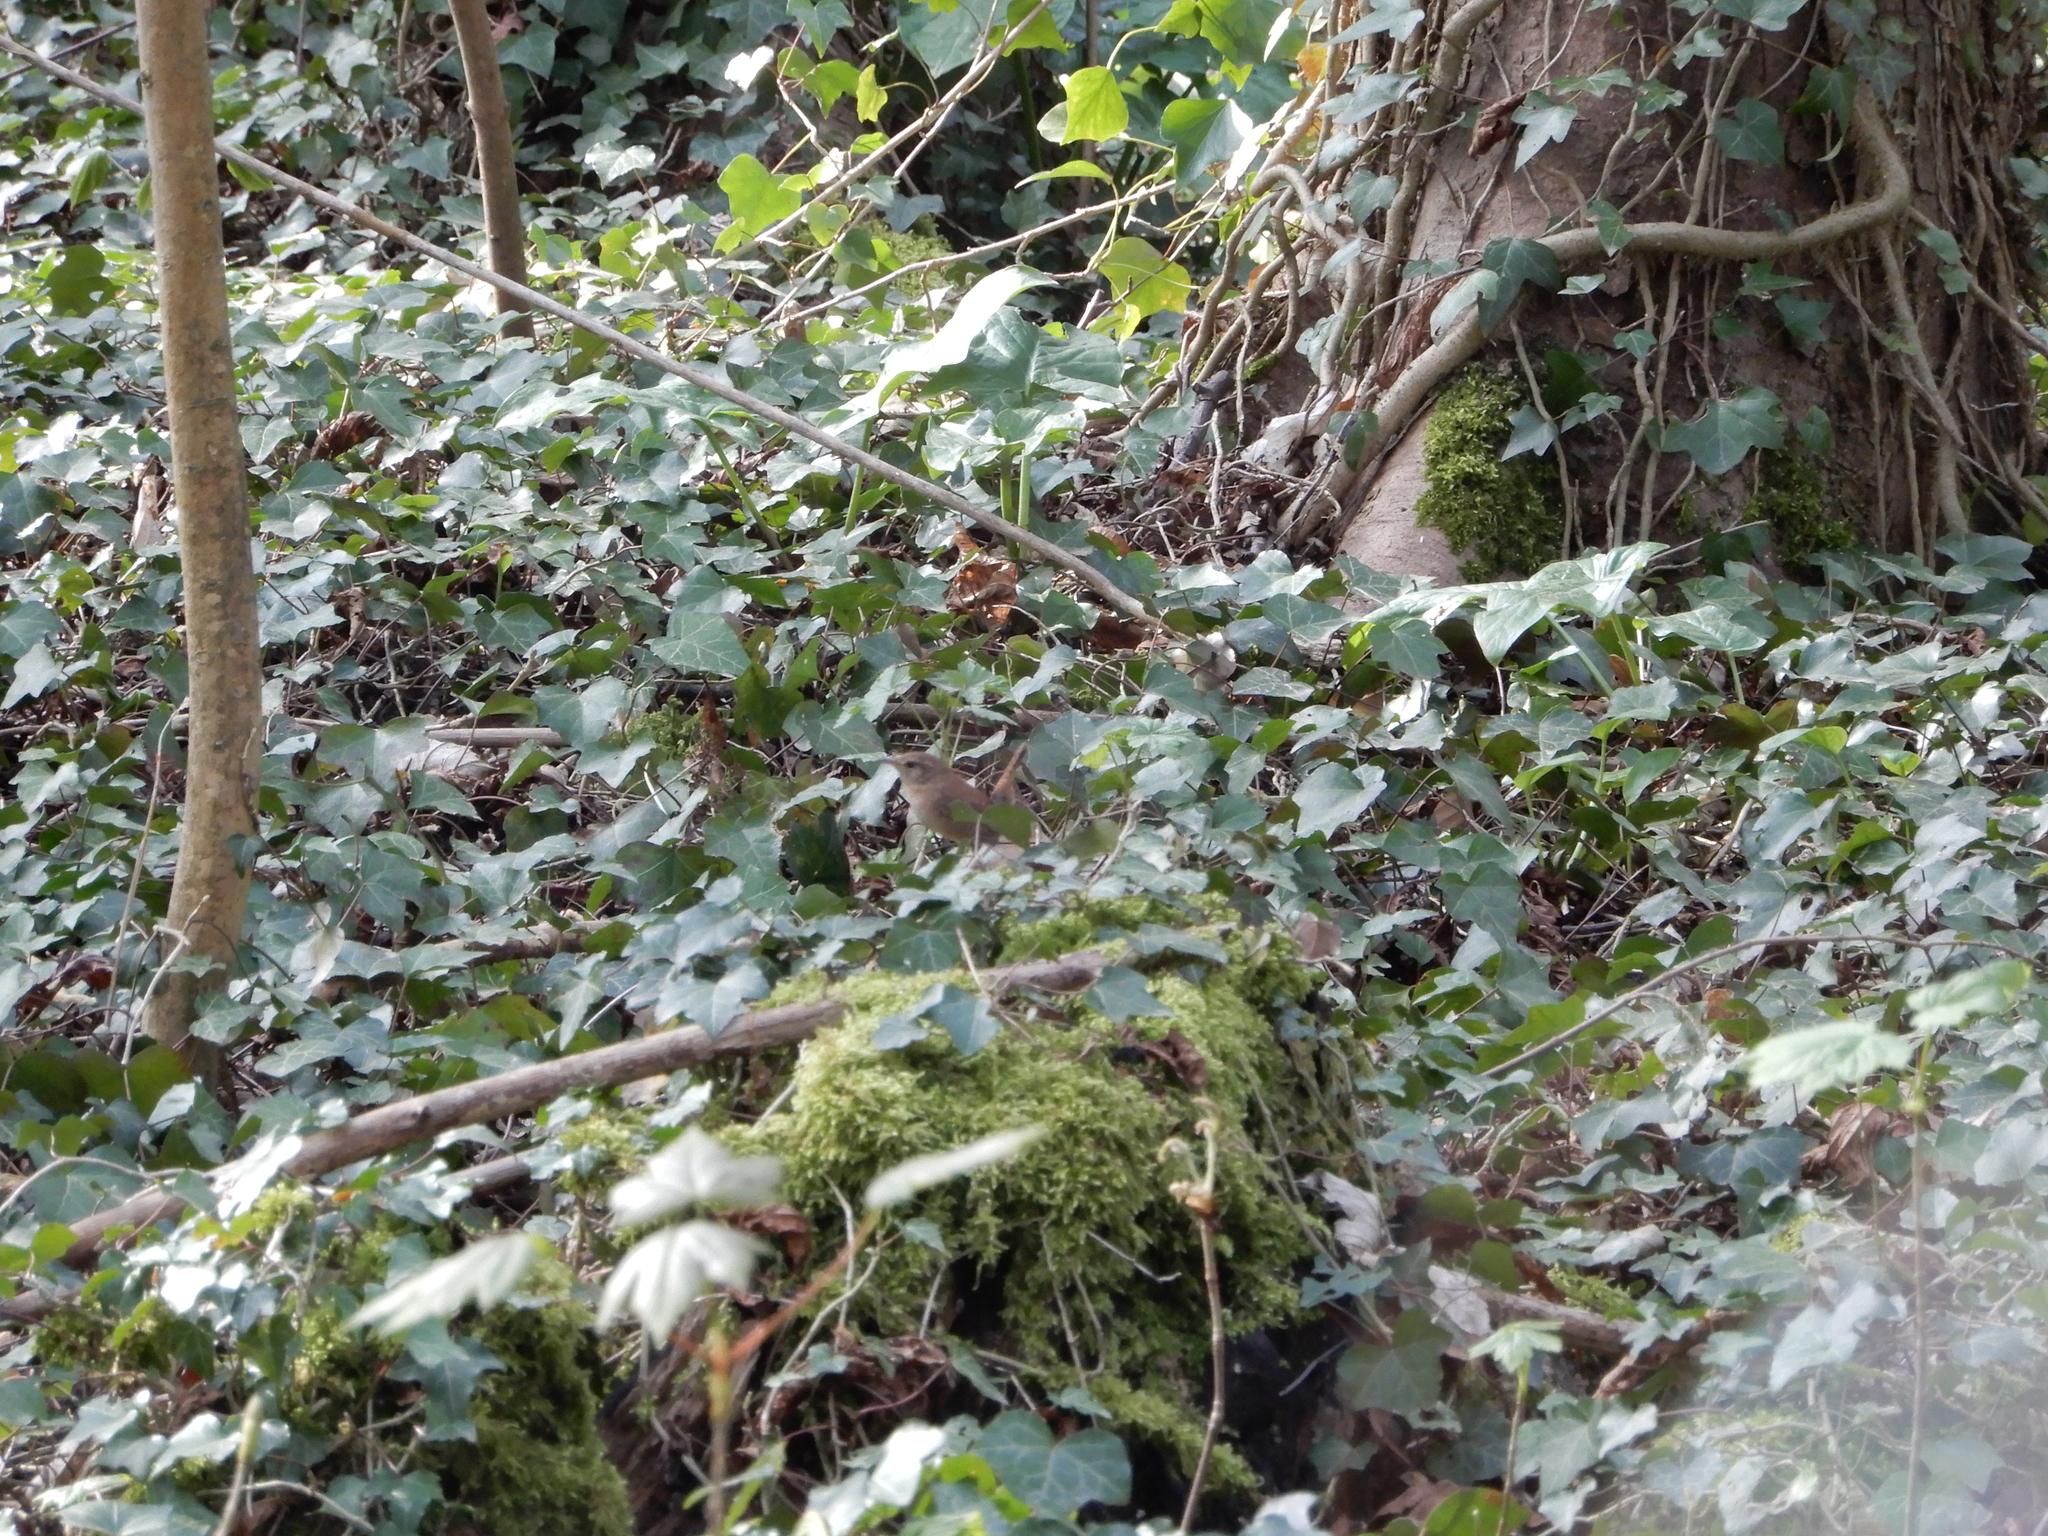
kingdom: Animalia
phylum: Chordata
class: Aves
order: Passeriformes
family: Troglodytidae
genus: Troglodytes
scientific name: Troglodytes troglodytes
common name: Eurasian wren
